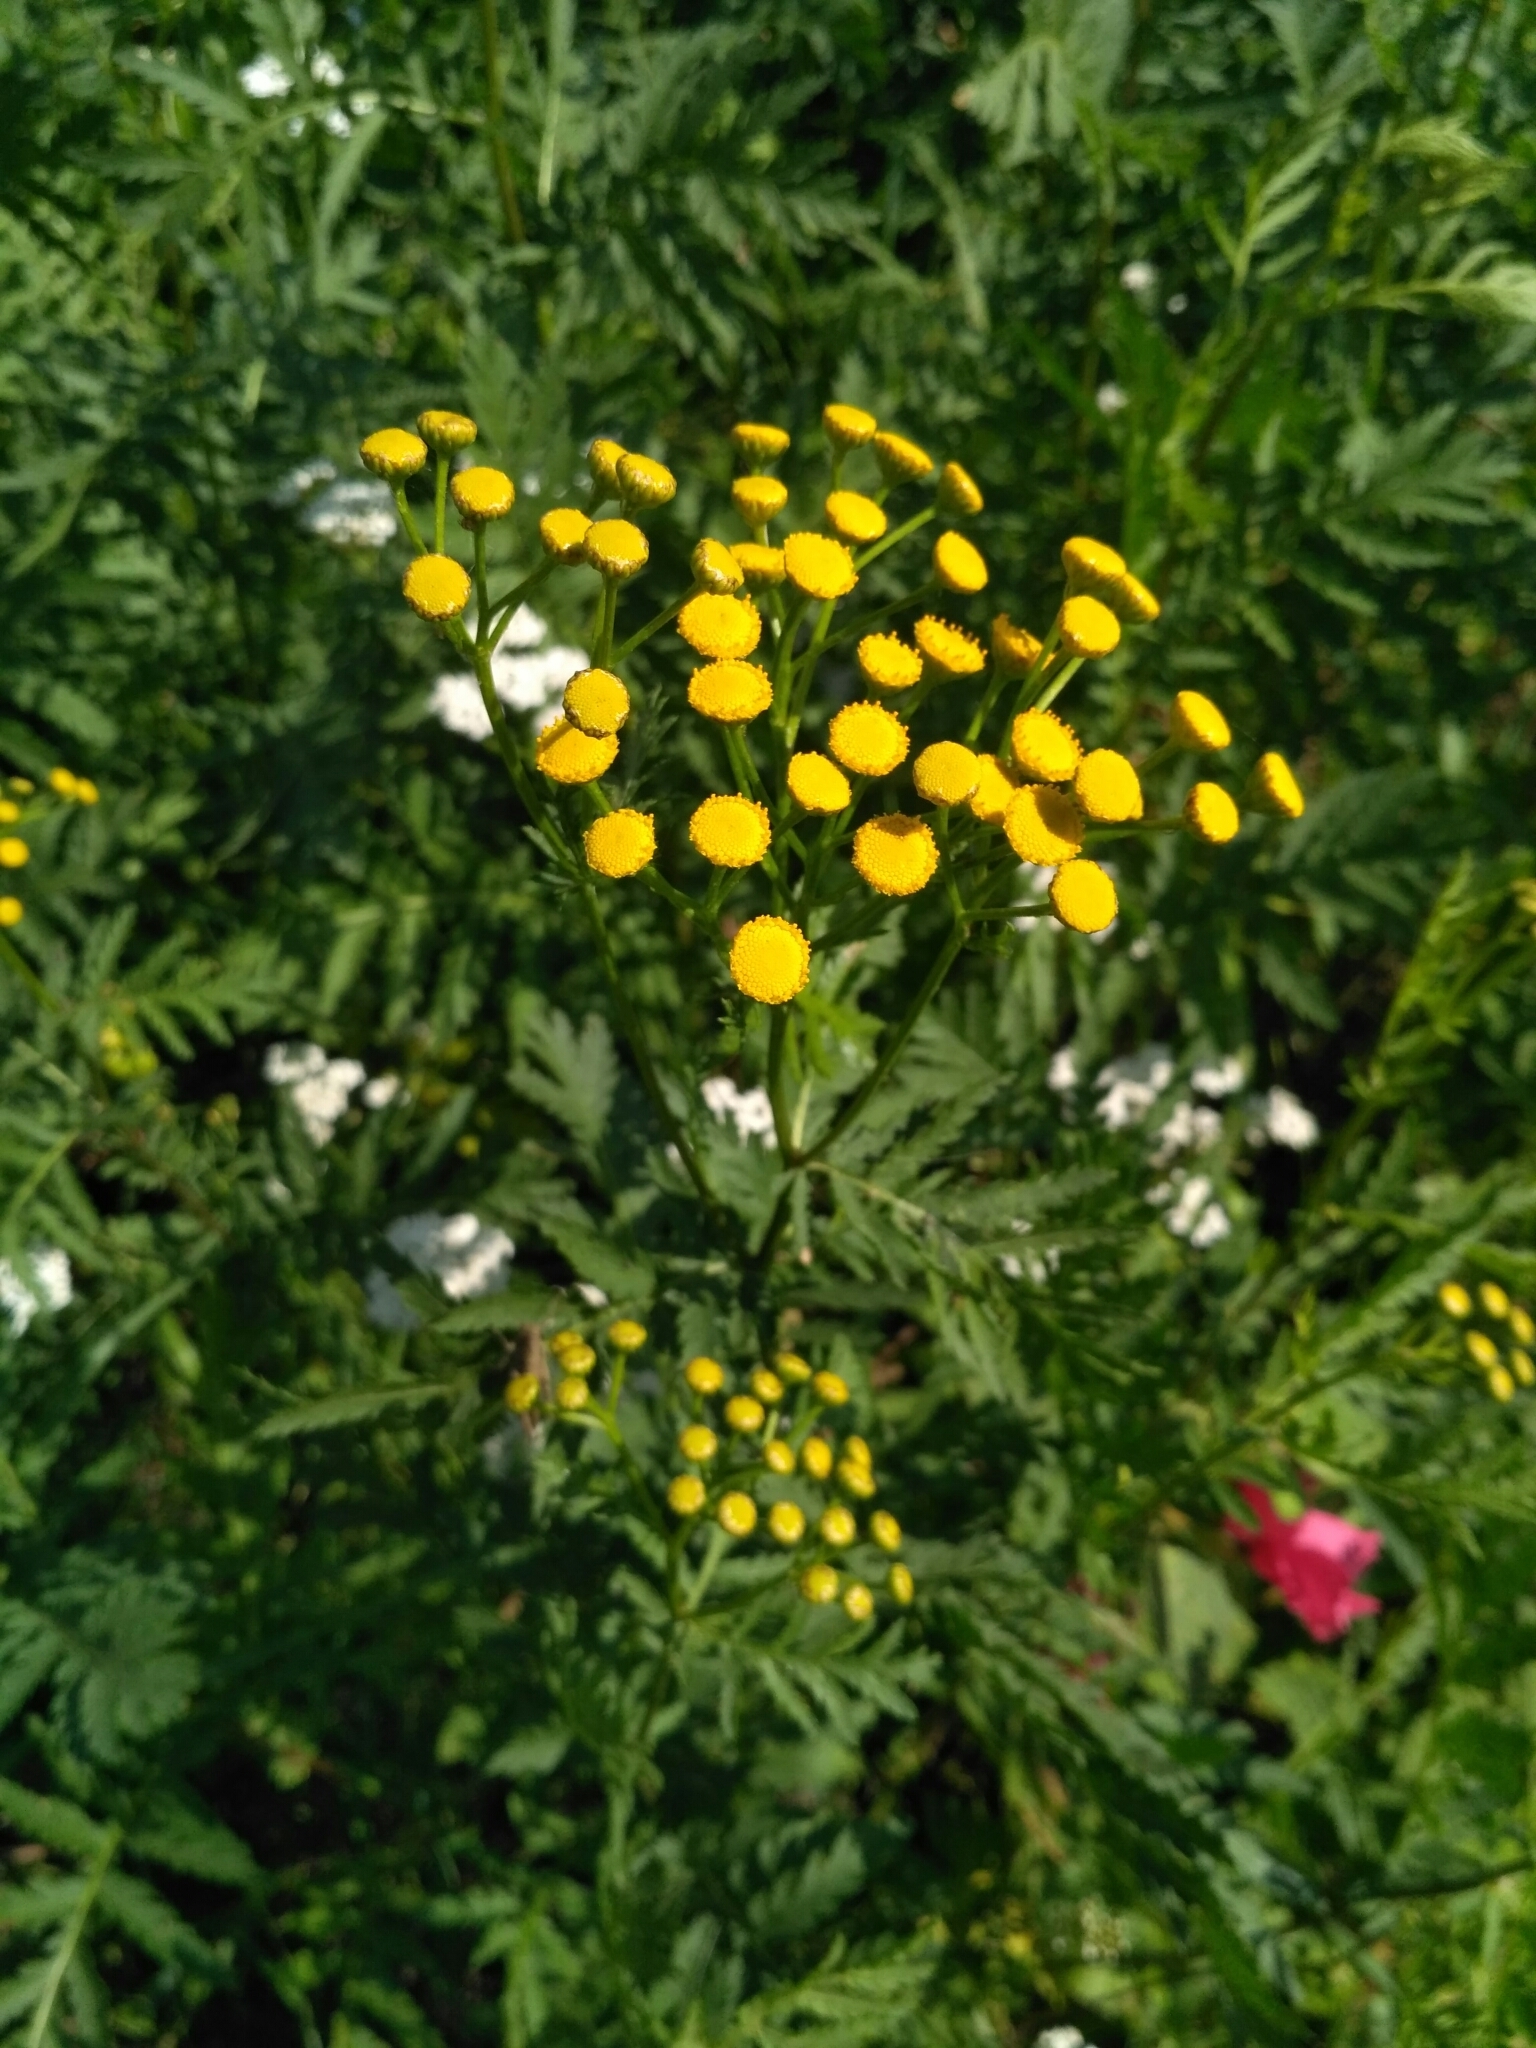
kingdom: Plantae
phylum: Tracheophyta
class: Magnoliopsida
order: Asterales
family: Asteraceae
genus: Tanacetum
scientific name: Tanacetum vulgare
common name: Common tansy
